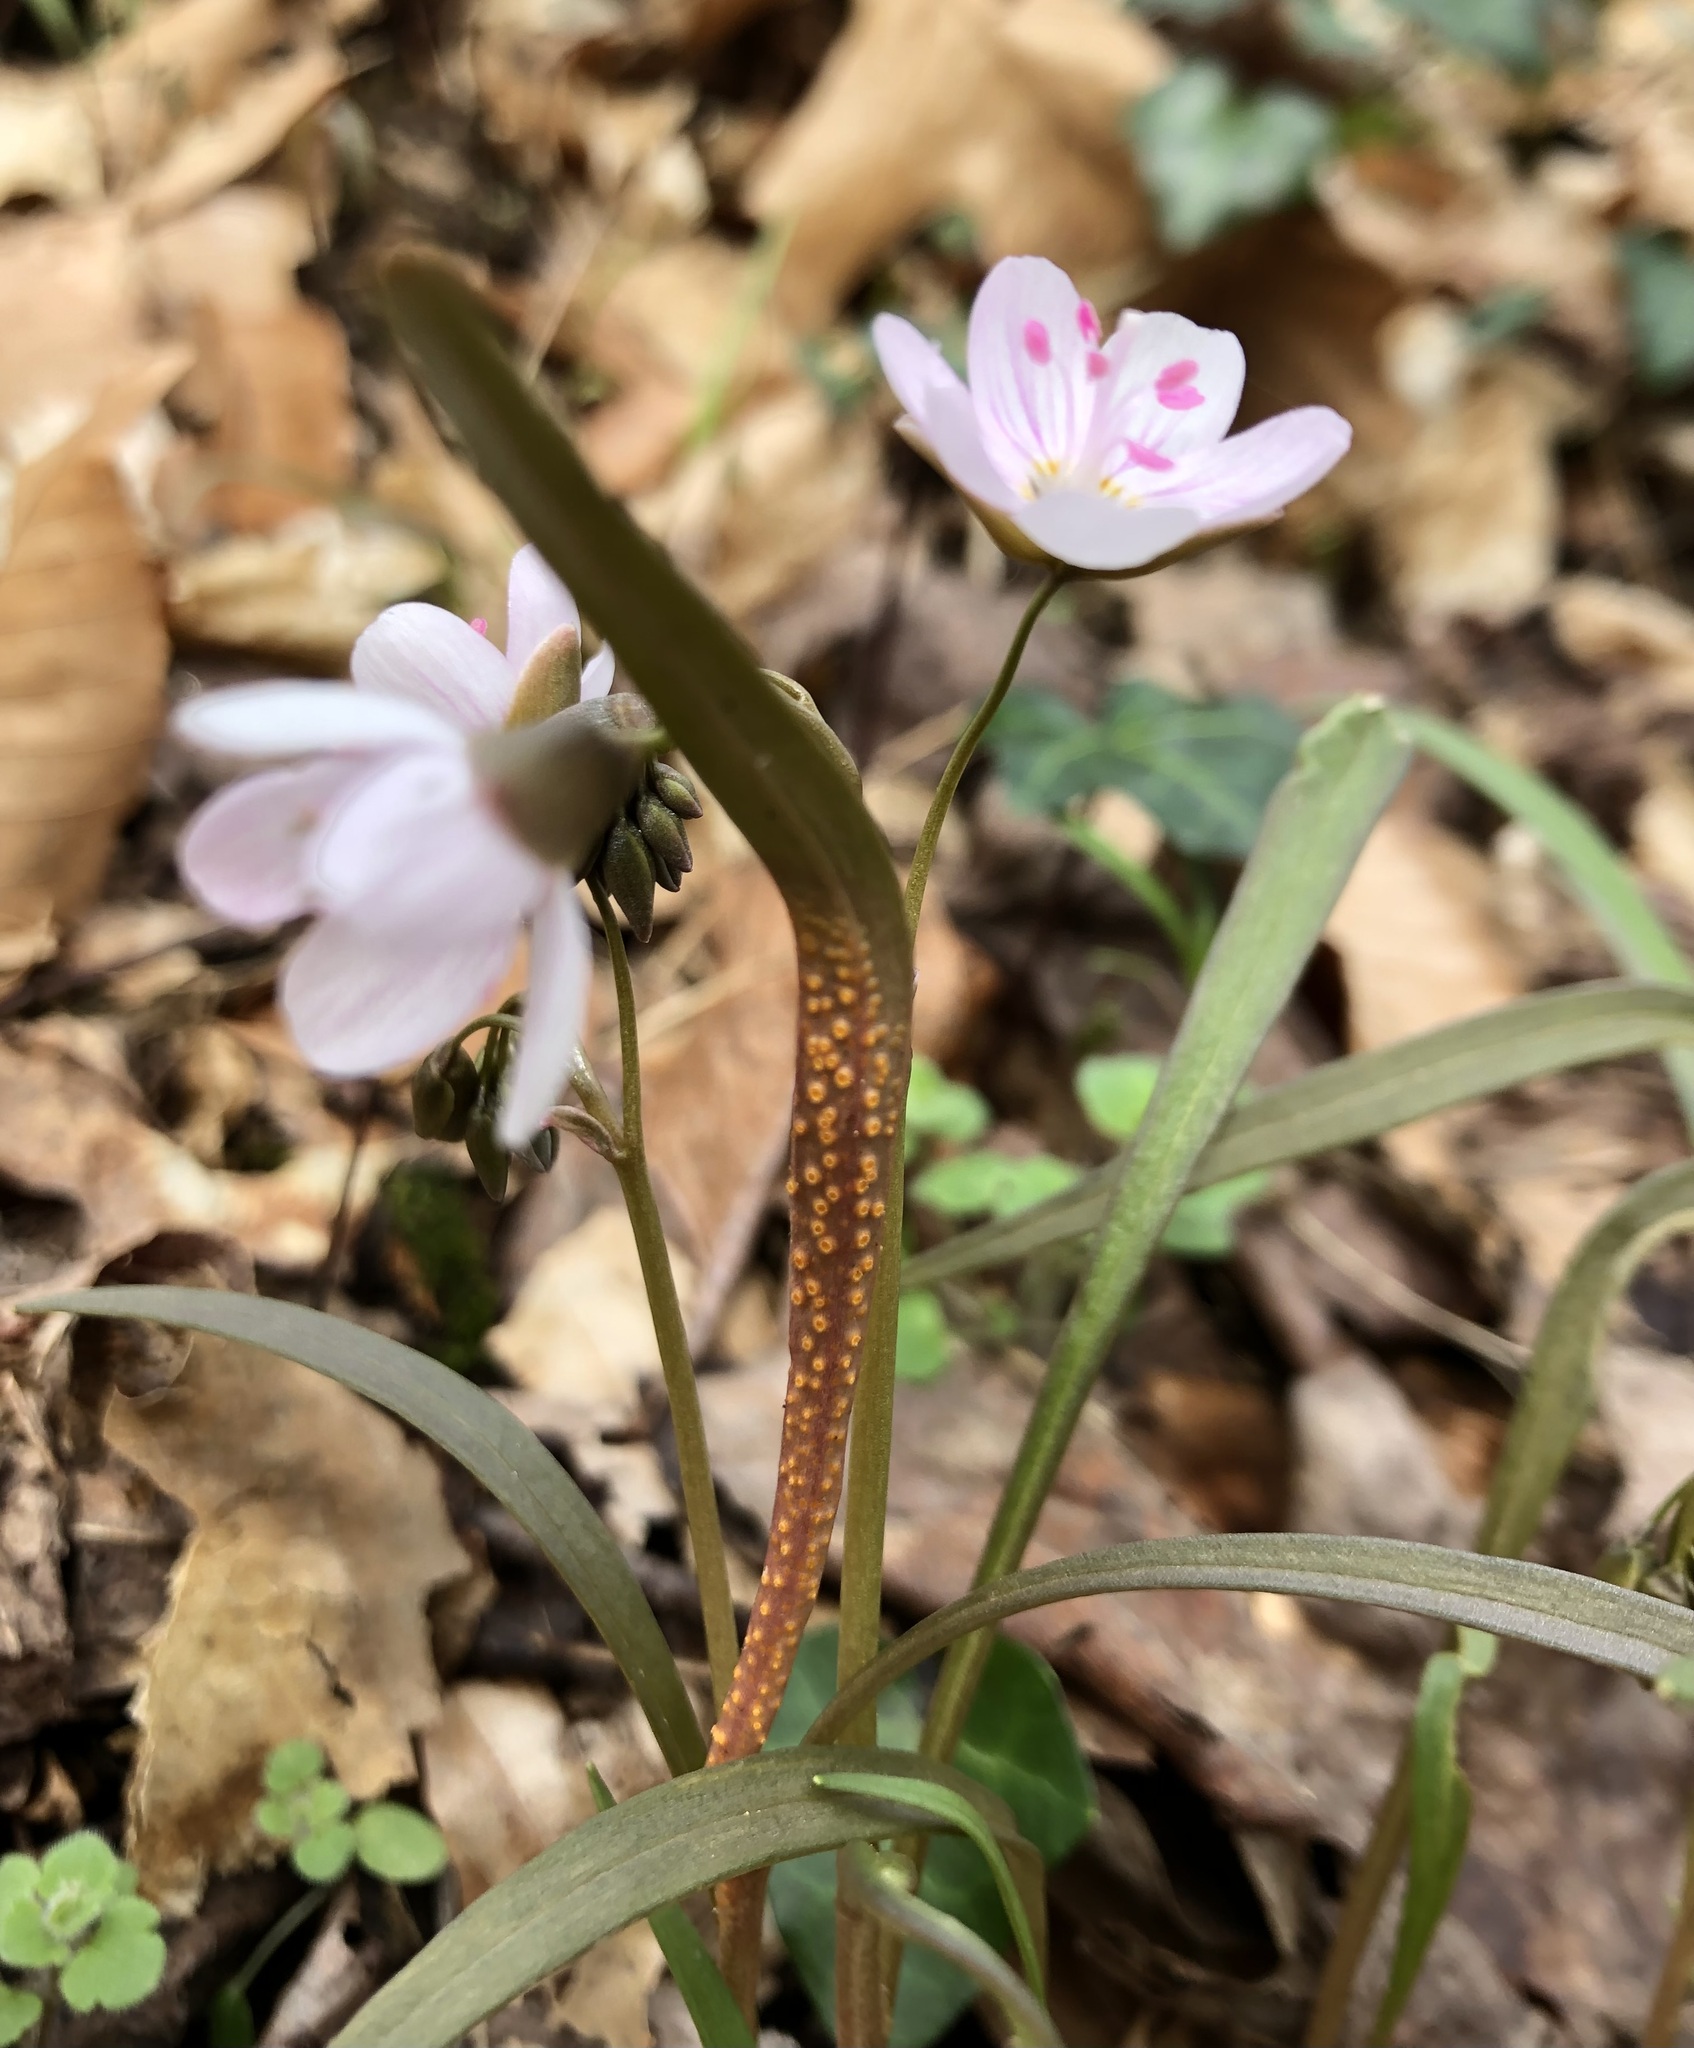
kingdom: Fungi
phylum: Basidiomycota
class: Pucciniomycetes
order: Pucciniales
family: Pucciniaceae
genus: Puccinia
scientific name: Puccinia mariae-wilsoniae
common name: Spring beauty rust
